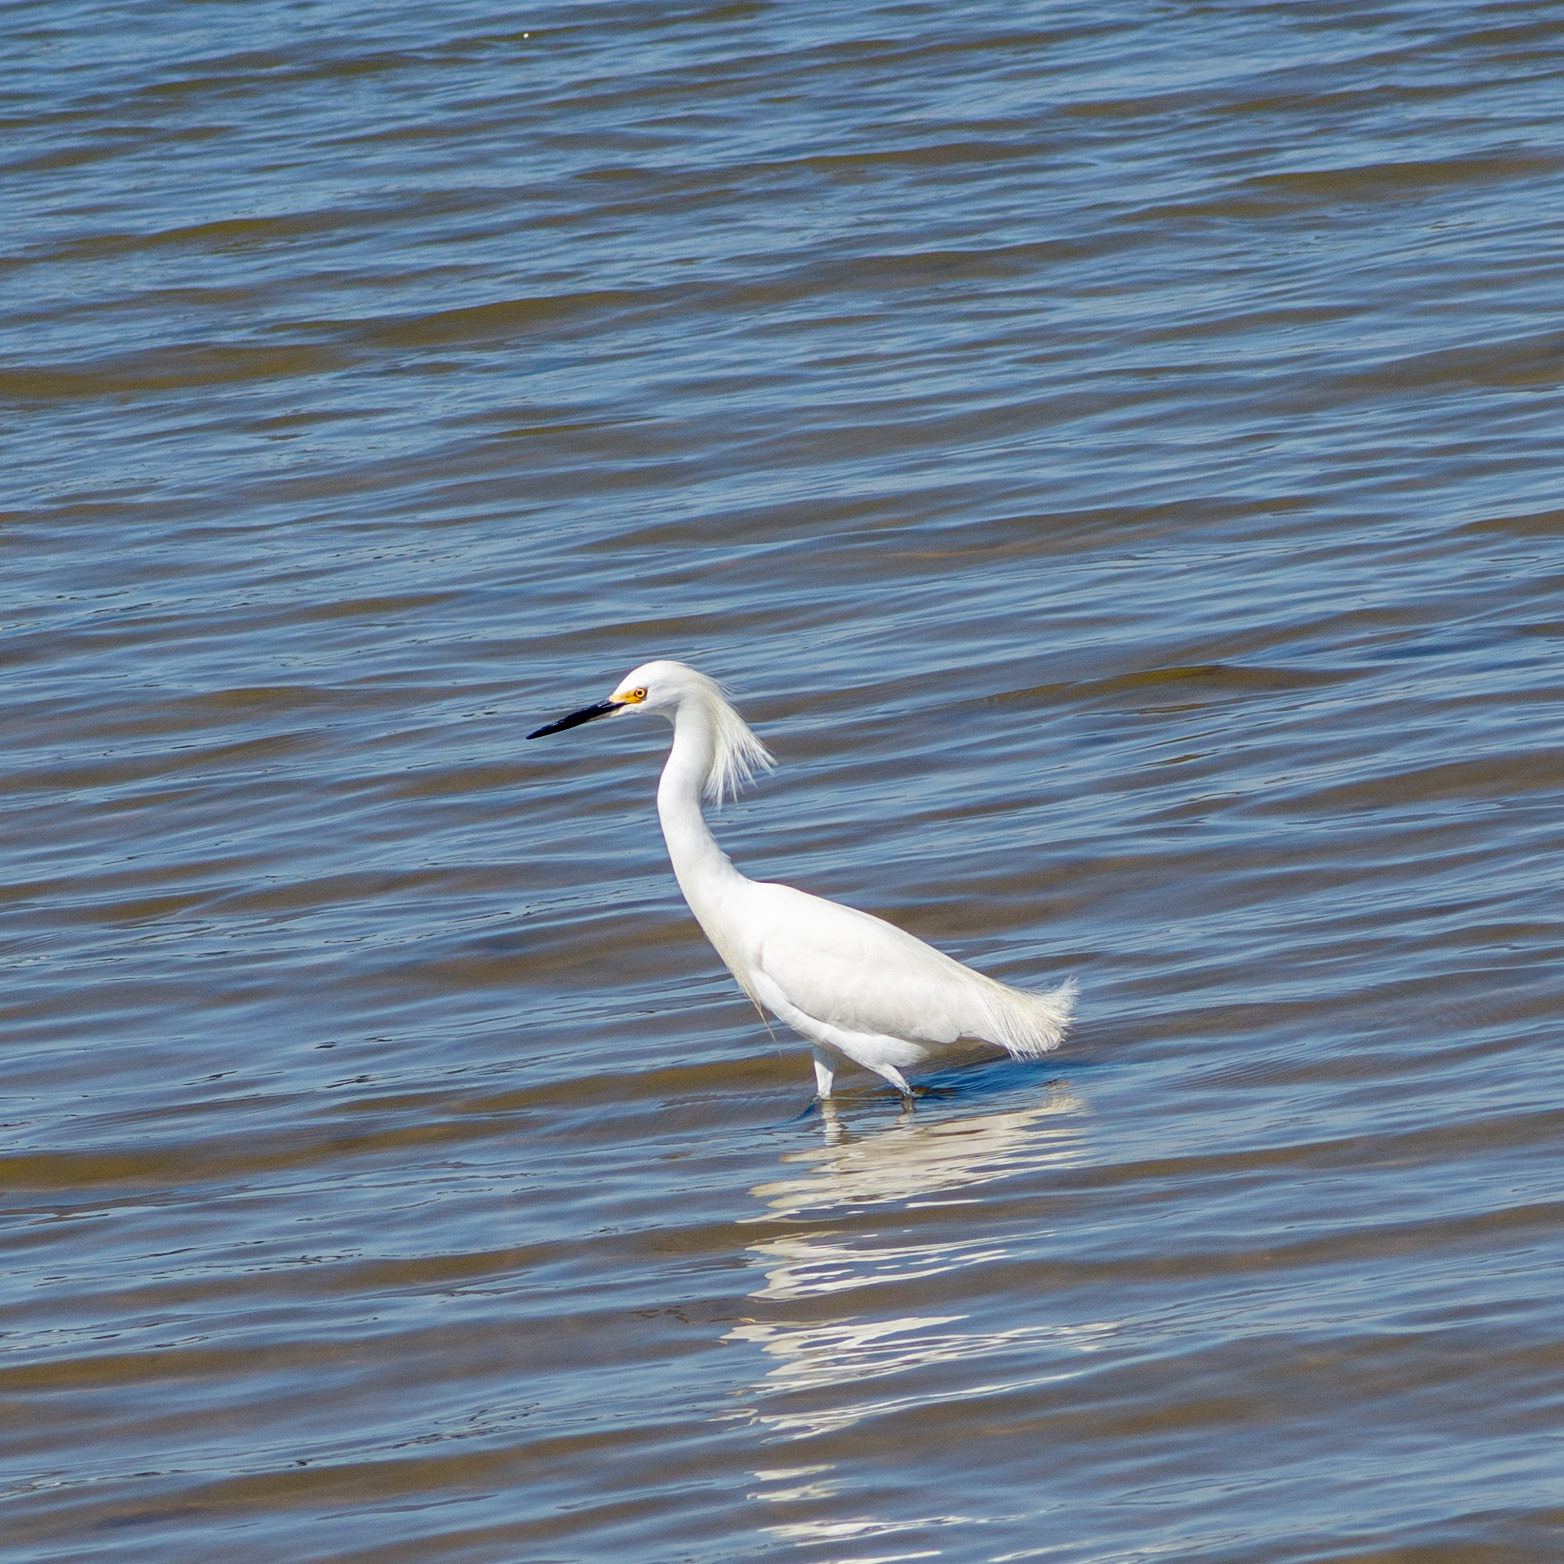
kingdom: Animalia
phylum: Chordata
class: Aves
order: Pelecaniformes
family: Ardeidae
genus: Egretta
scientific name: Egretta thula
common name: Snowy egret
